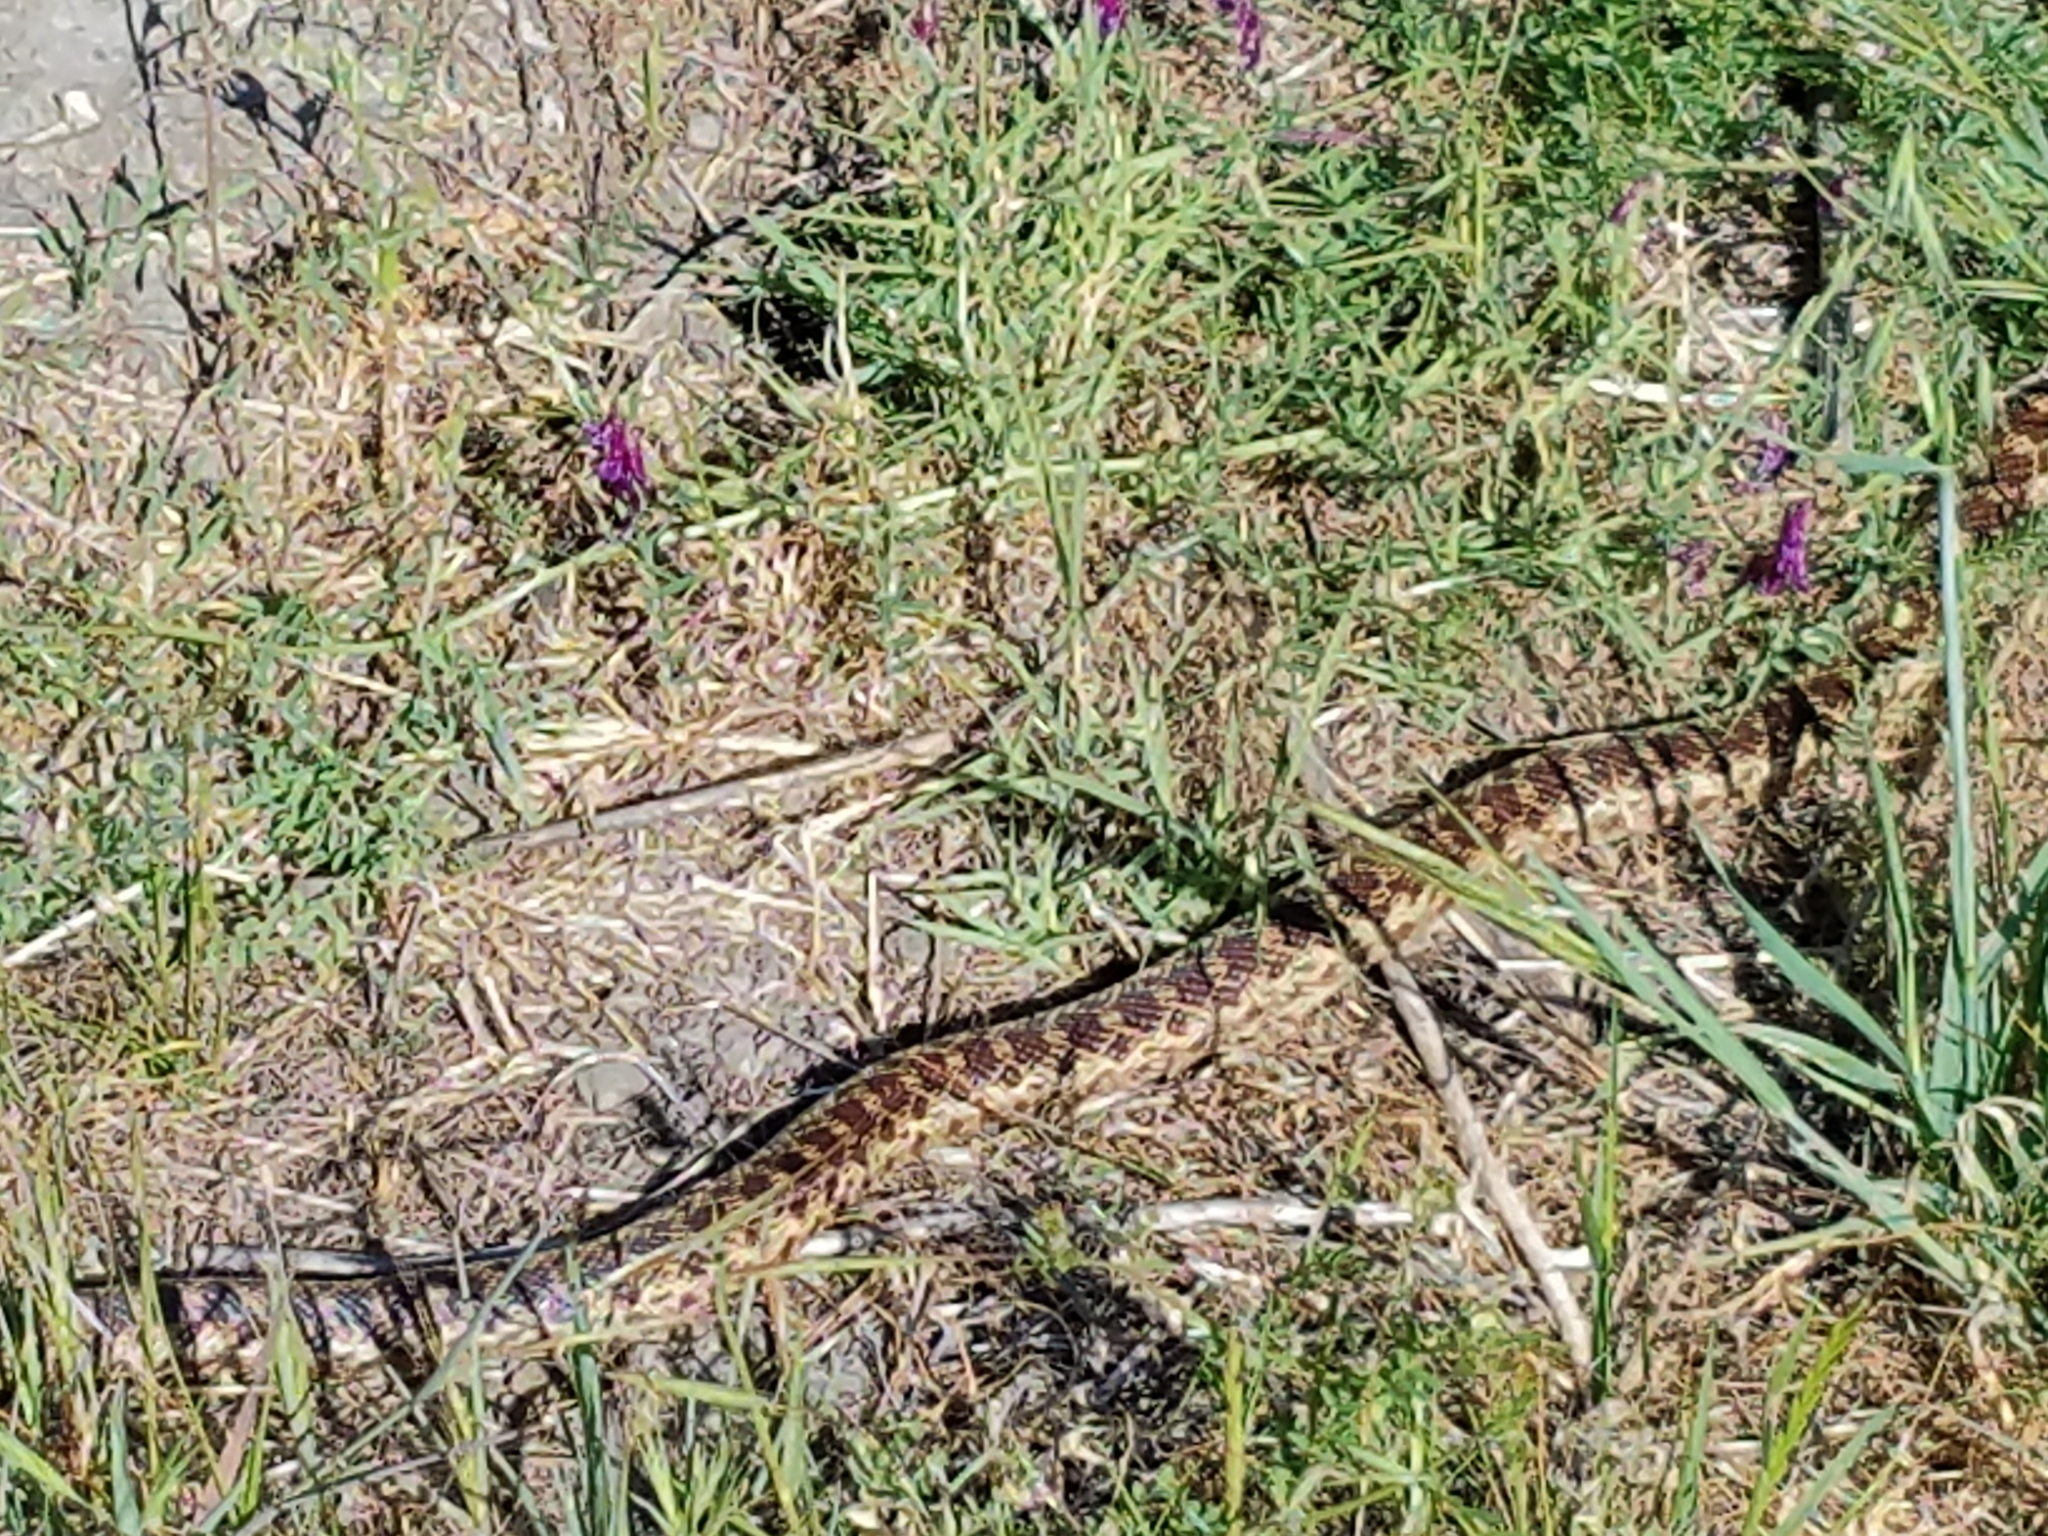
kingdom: Animalia
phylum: Chordata
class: Squamata
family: Colubridae
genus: Pituophis
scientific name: Pituophis catenifer
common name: Gopher snake
